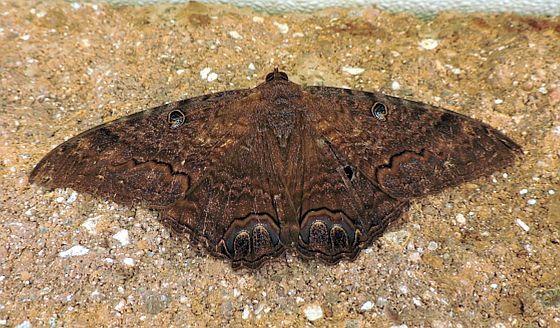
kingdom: Animalia
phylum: Arthropoda
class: Insecta
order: Lepidoptera
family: Erebidae
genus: Ascalapha
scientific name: Ascalapha odorata
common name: Black witch
